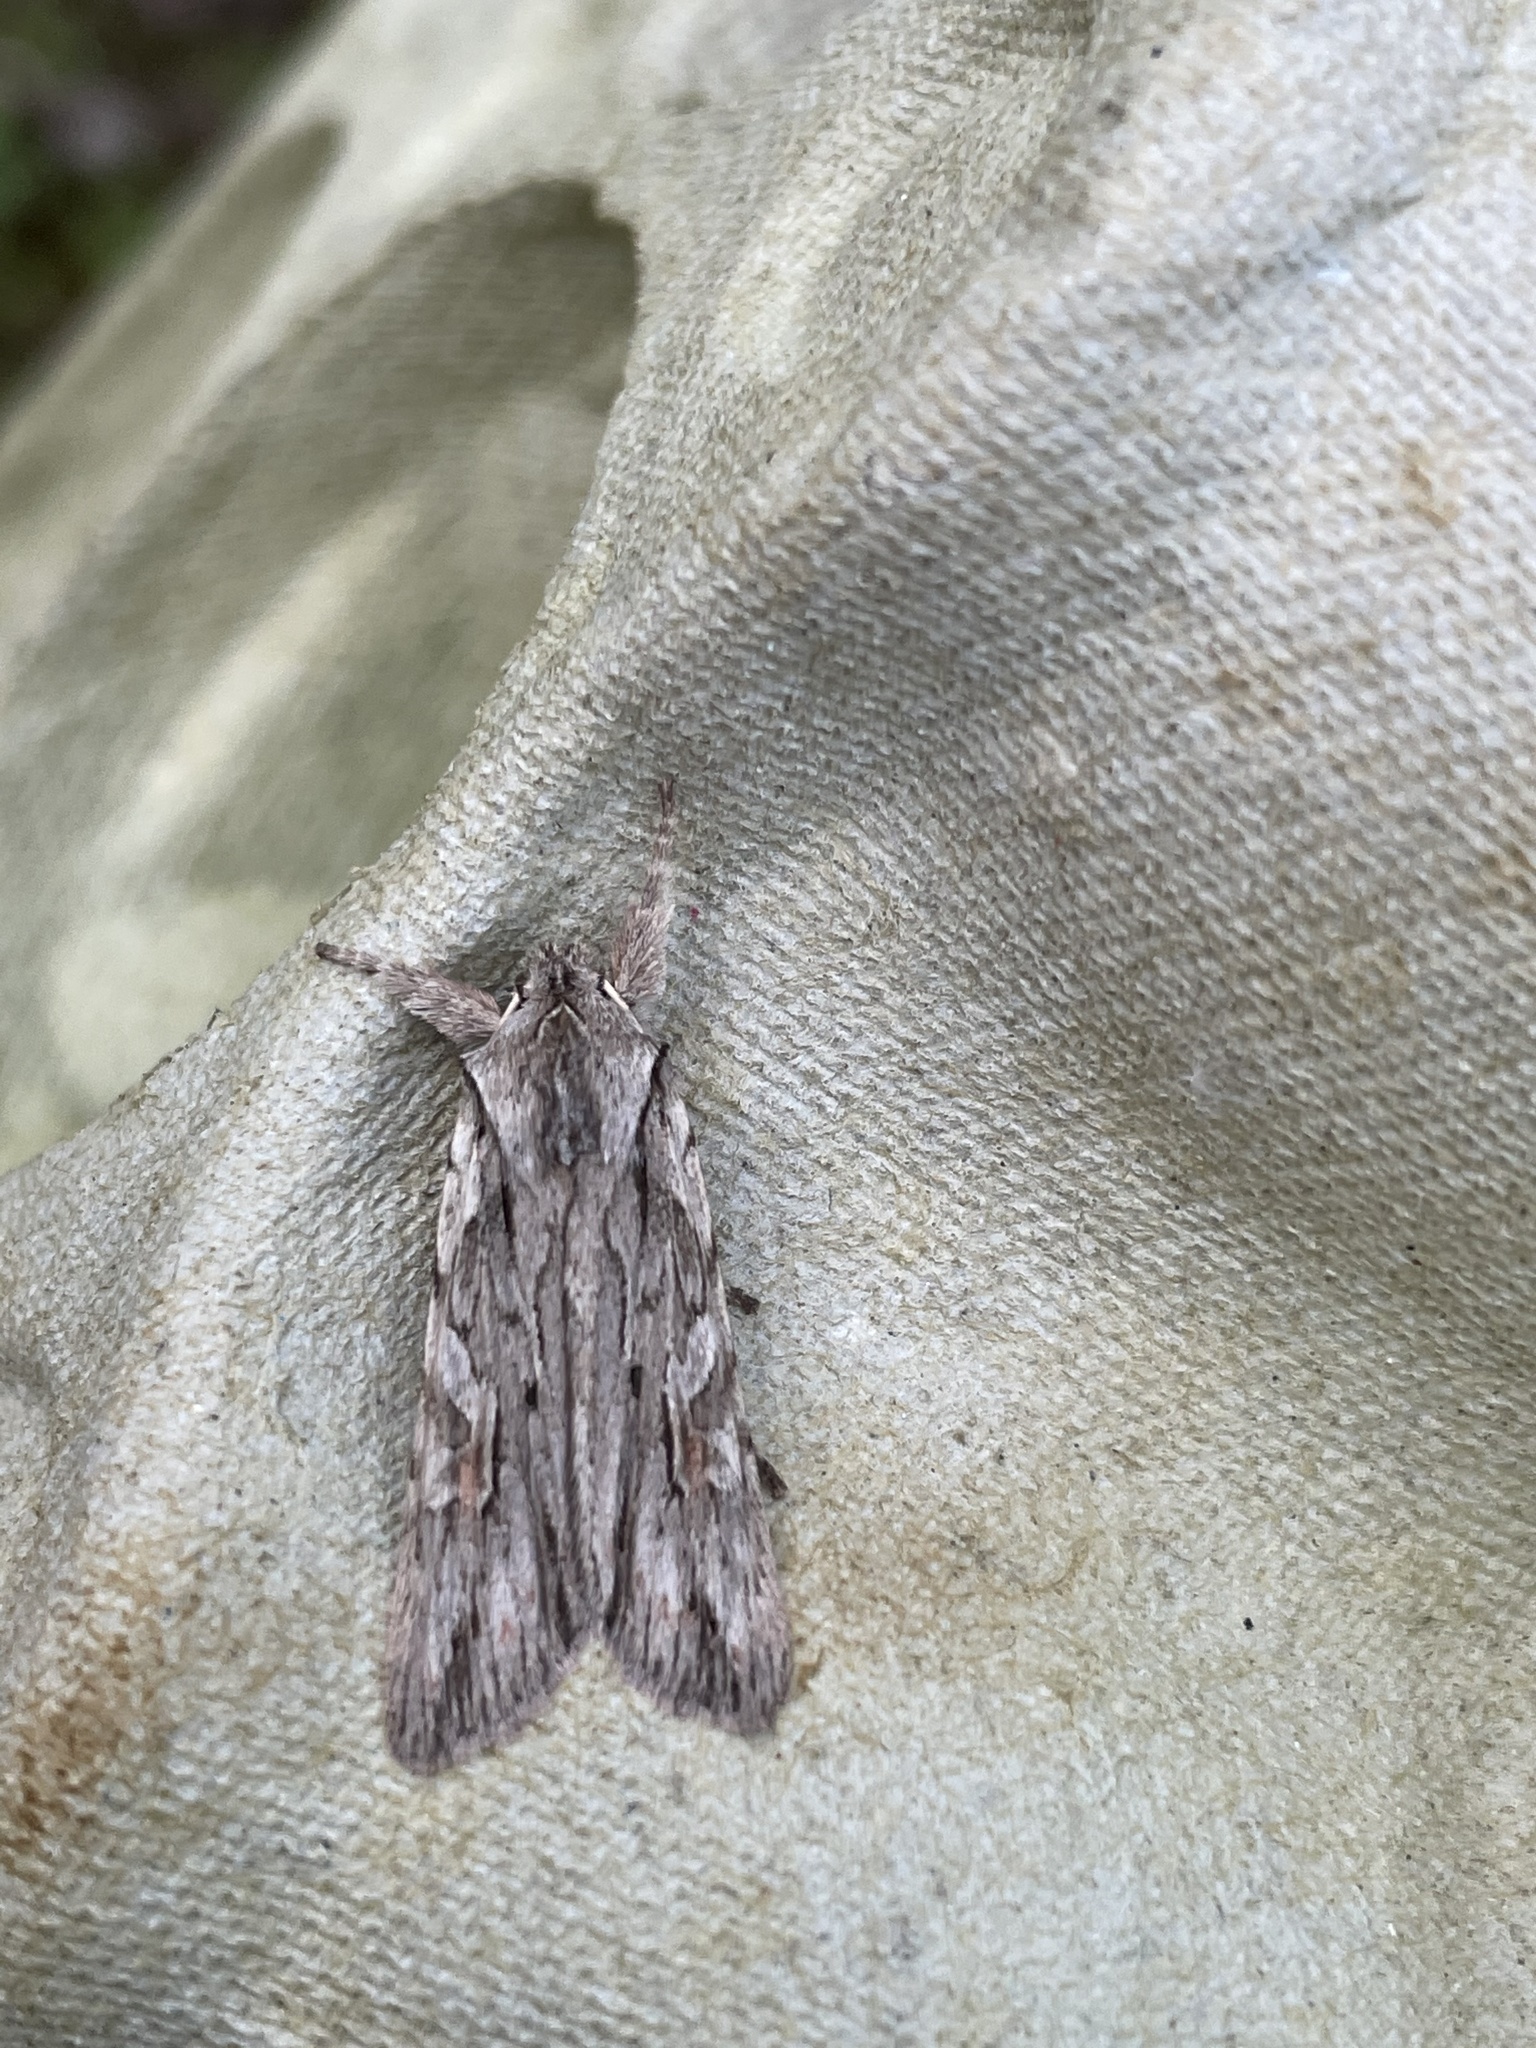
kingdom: Animalia
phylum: Arthropoda
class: Insecta
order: Lepidoptera
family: Noctuidae
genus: Lithophane
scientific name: Lithophane leautieri
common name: Blair's shoulder-knot
